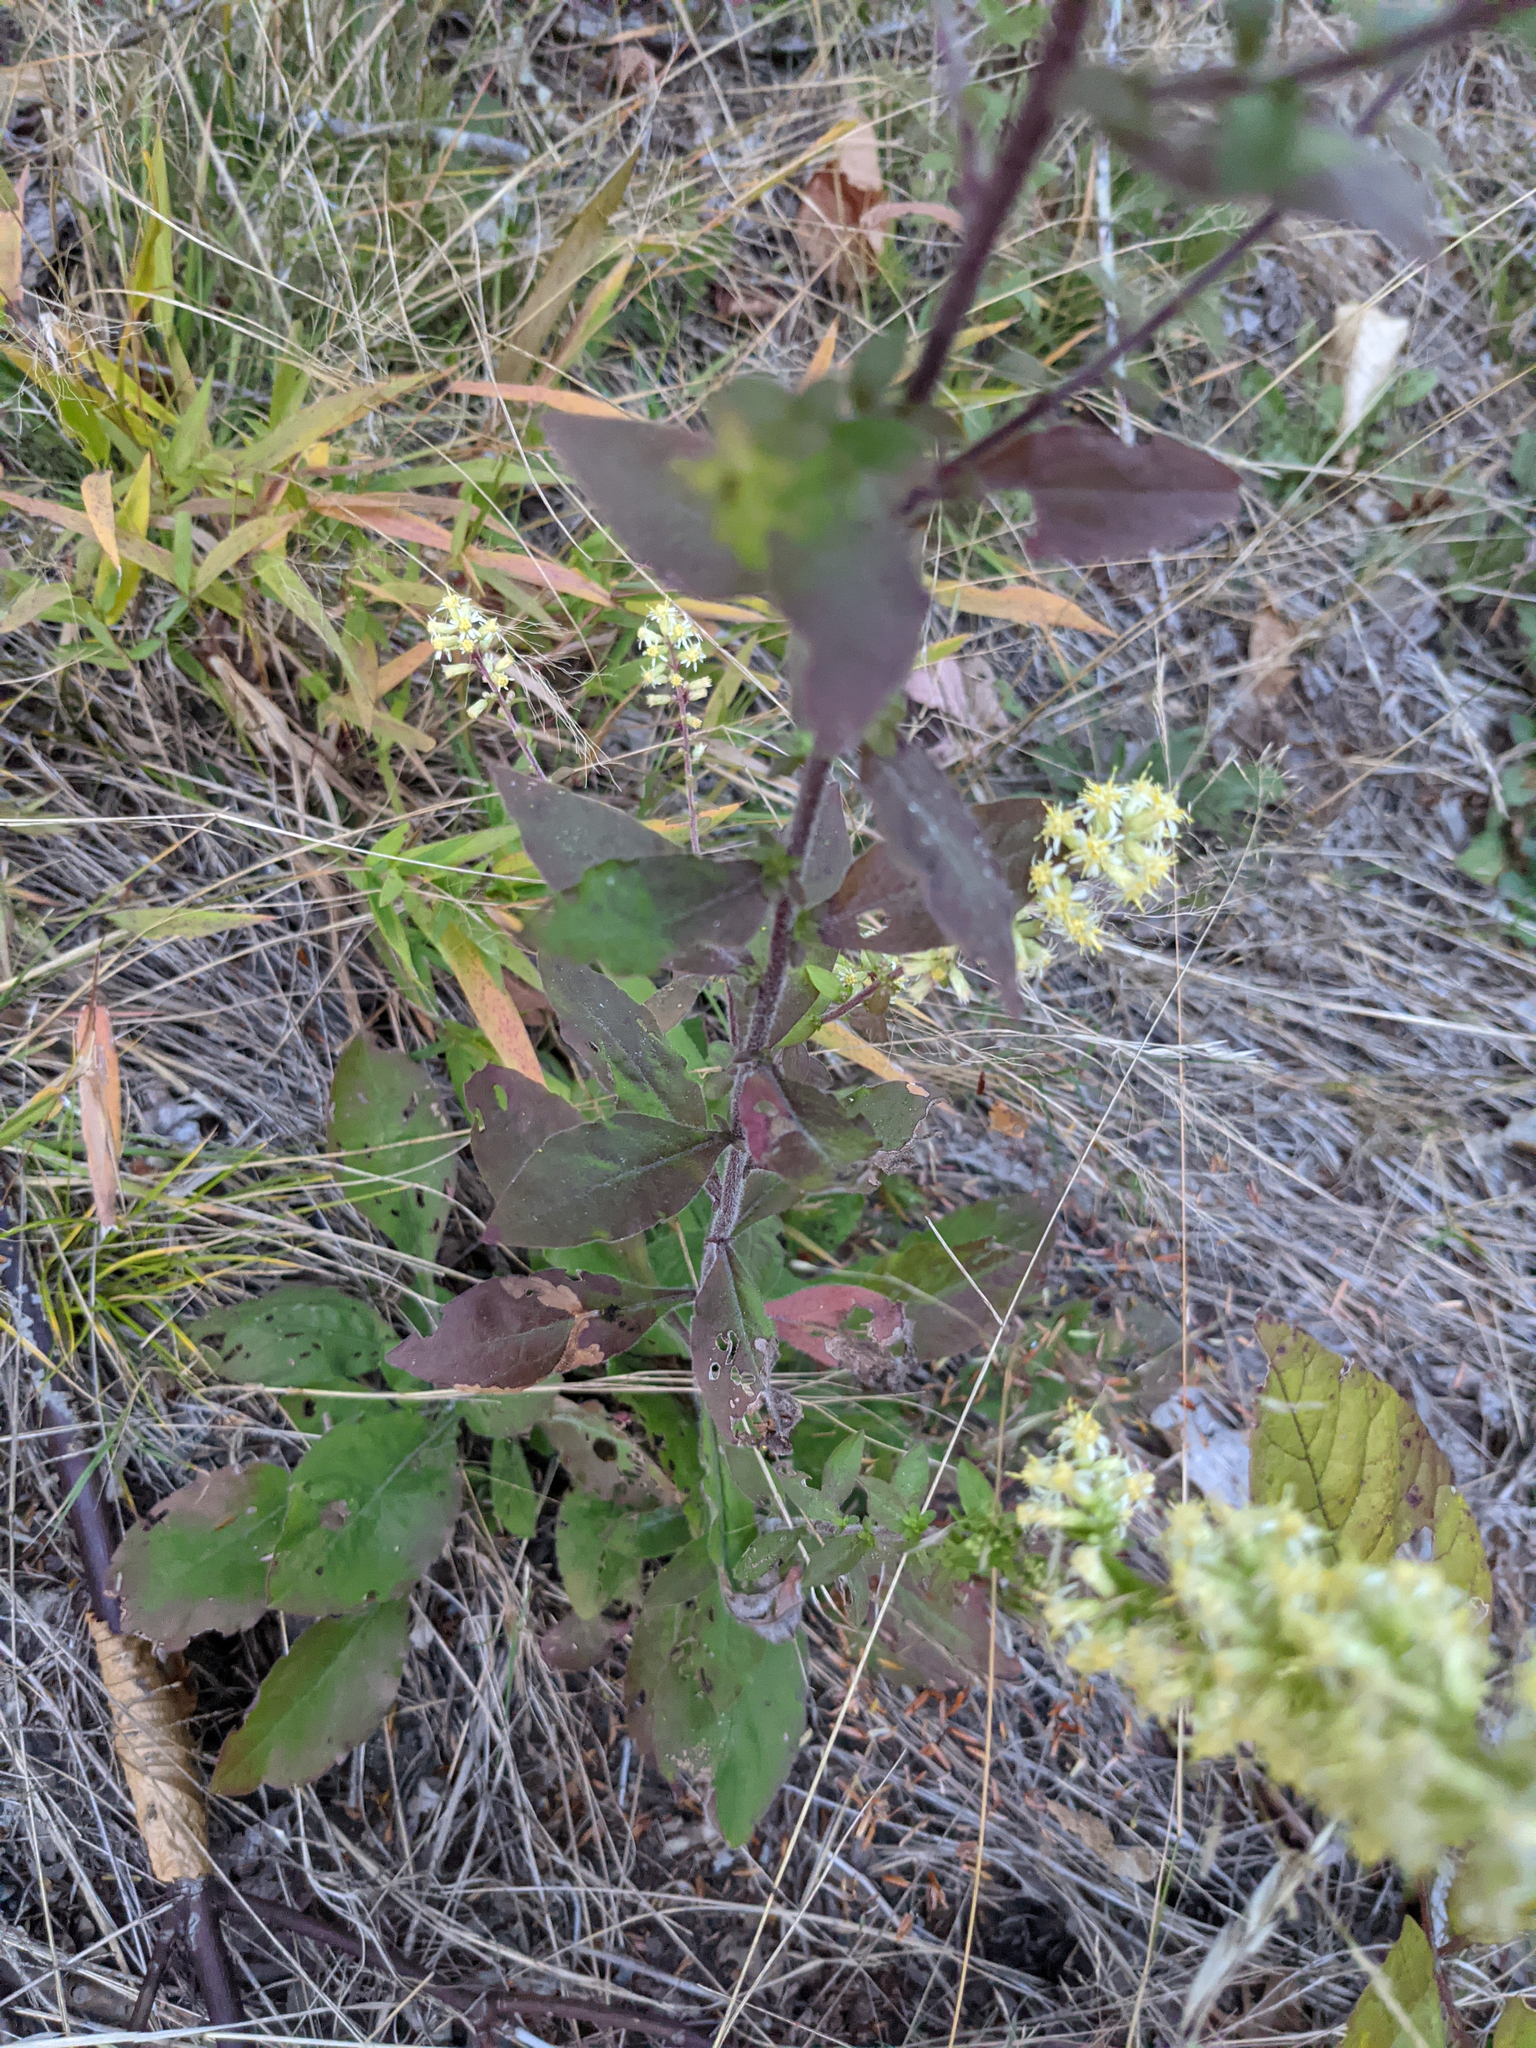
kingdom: Plantae
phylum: Tracheophyta
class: Magnoliopsida
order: Asterales
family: Asteraceae
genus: Solidago
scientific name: Solidago bicolor
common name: Silverrod
